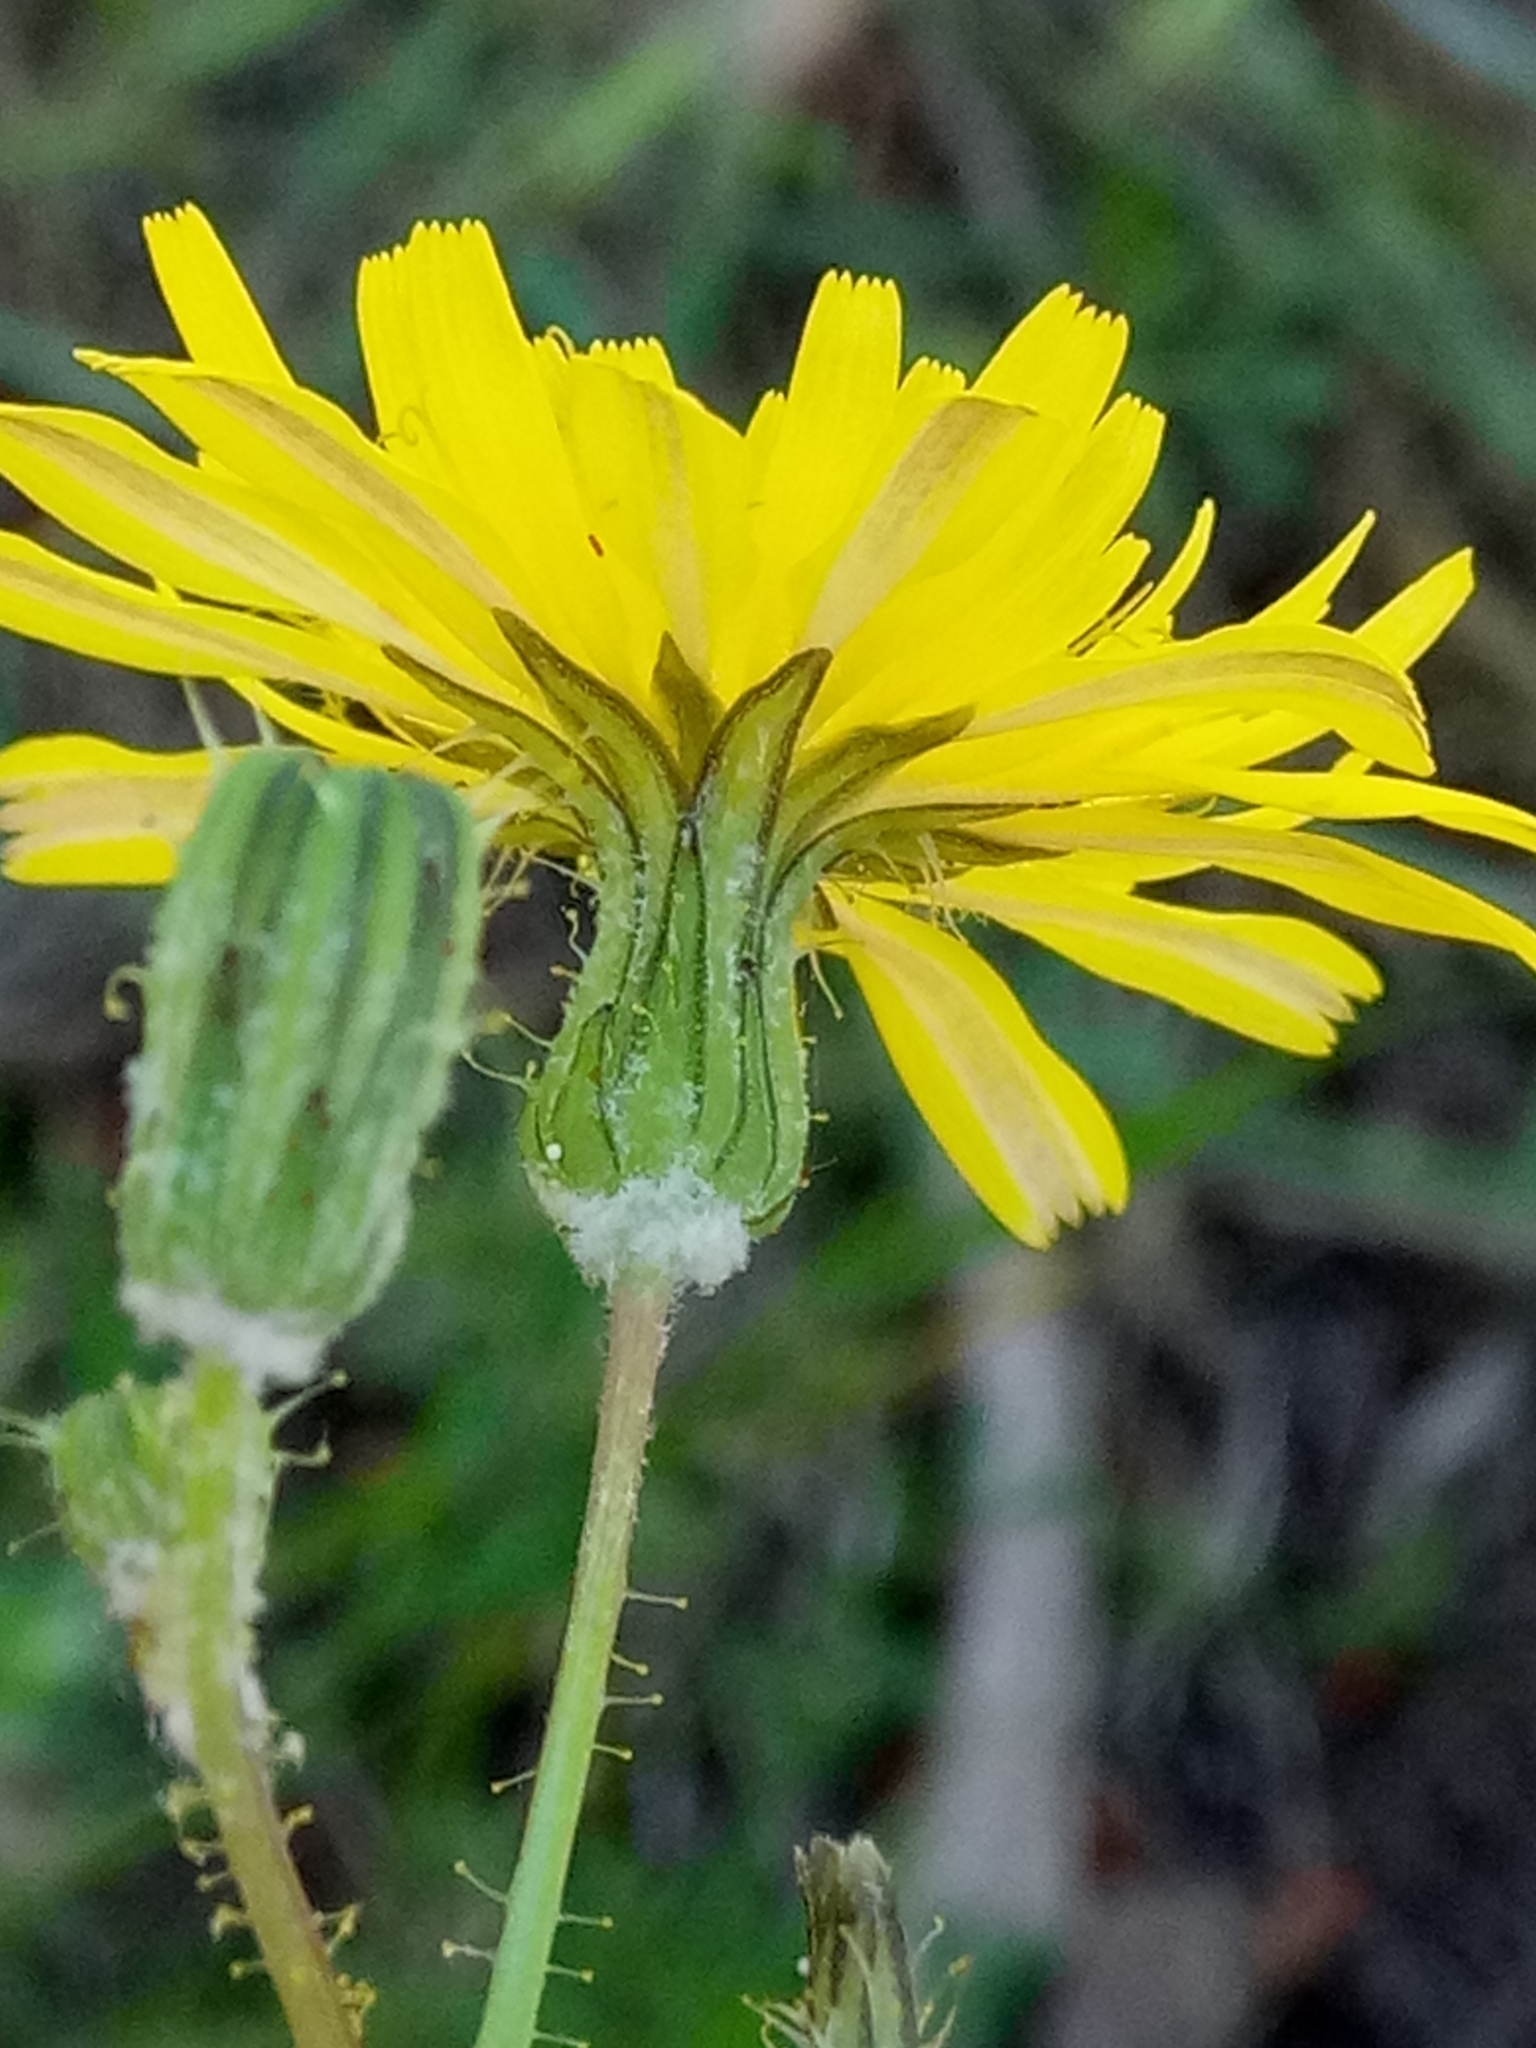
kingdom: Plantae
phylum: Tracheophyta
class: Magnoliopsida
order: Asterales
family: Asteraceae
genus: Sonchus
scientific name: Sonchus arvensis
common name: Perennial sow-thistle
